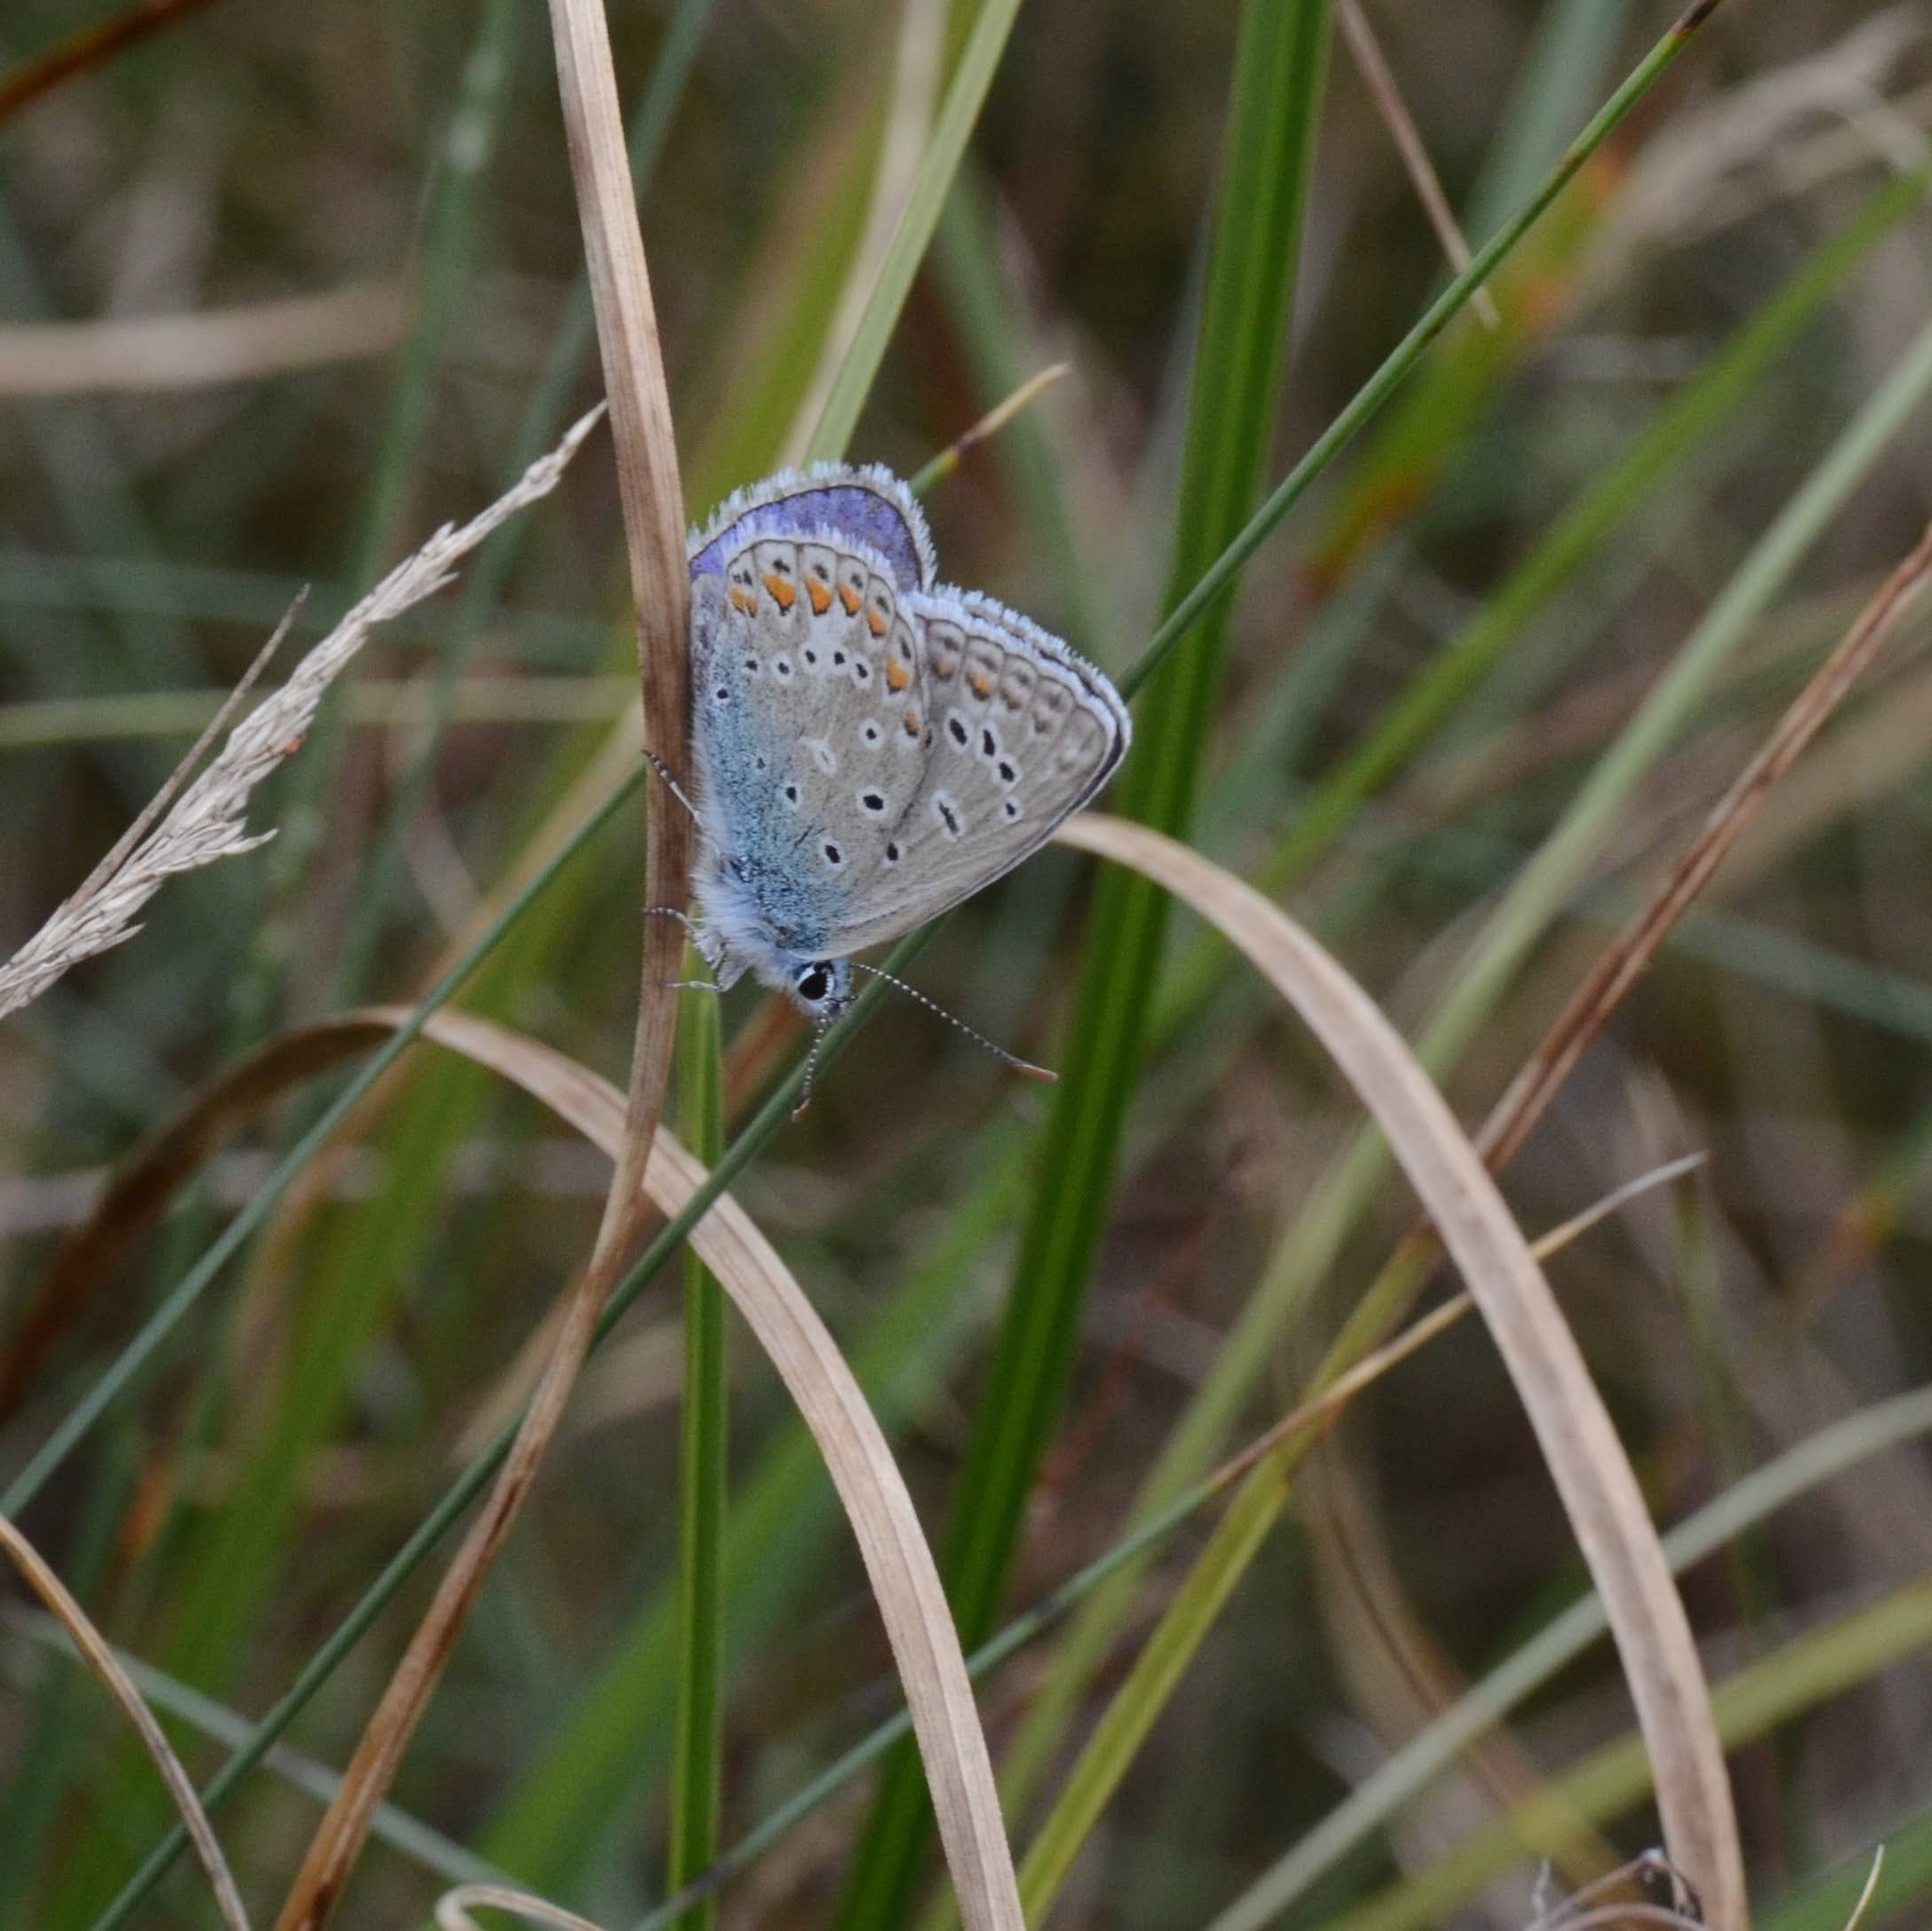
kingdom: Animalia
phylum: Arthropoda
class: Insecta
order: Lepidoptera
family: Lycaenidae
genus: Polyommatus
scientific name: Polyommatus icarus
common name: Common blue
